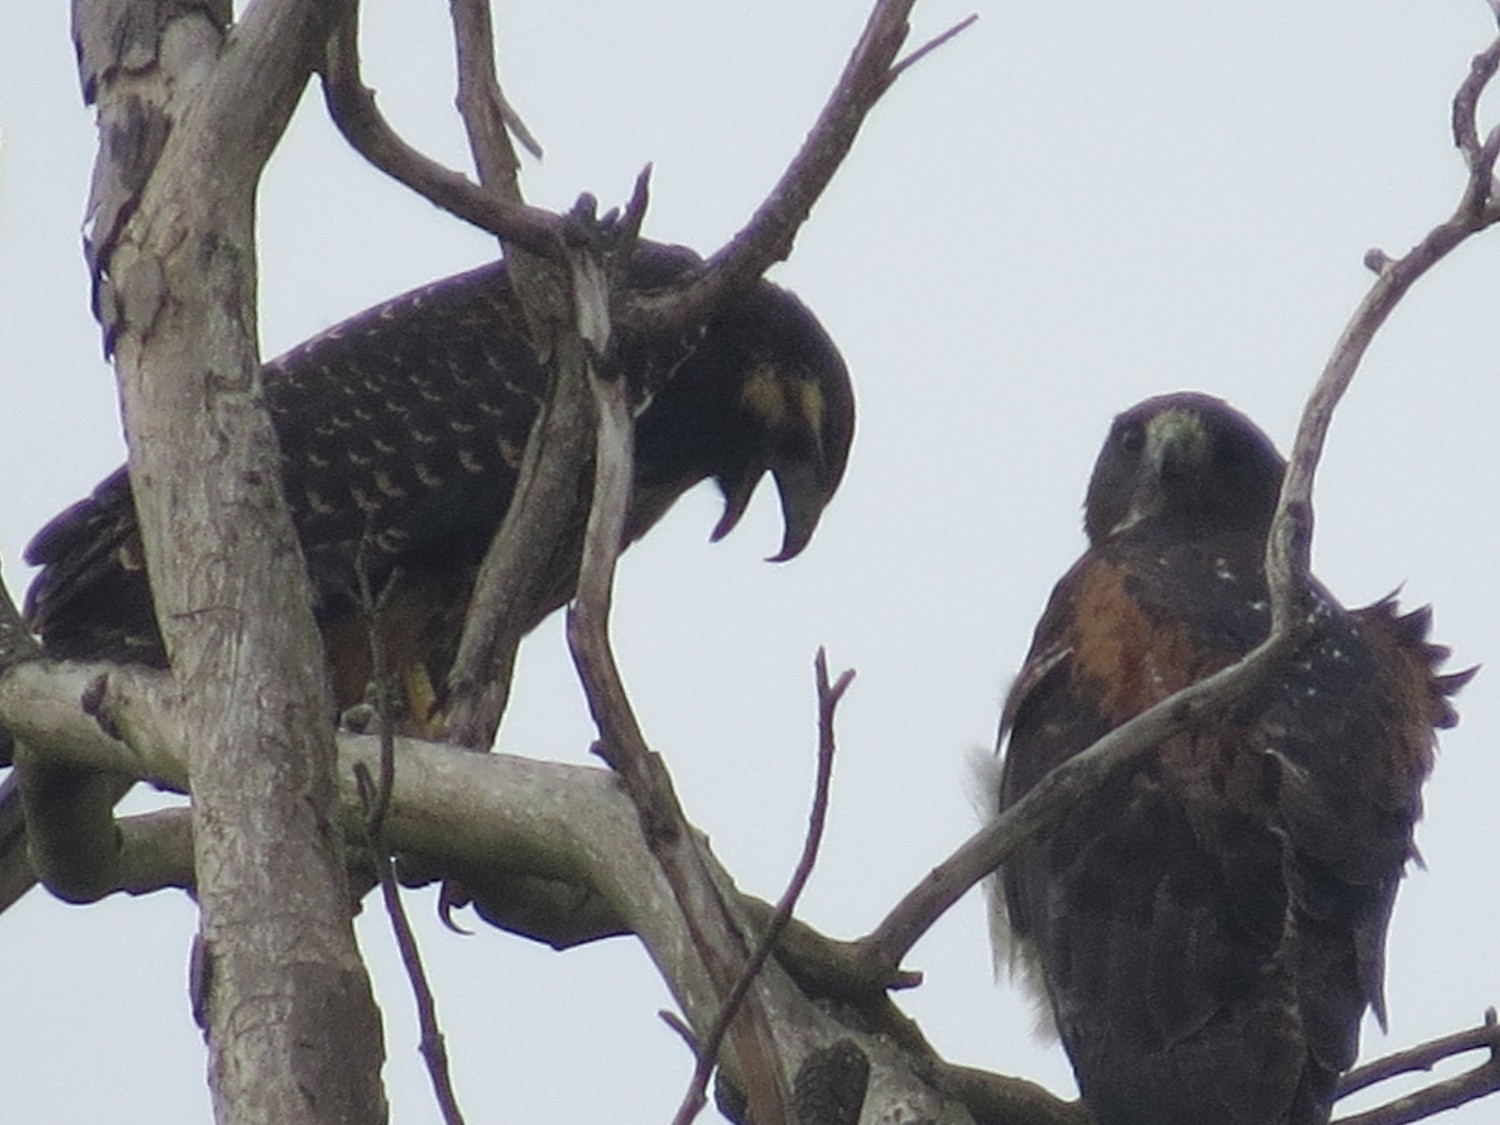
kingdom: Animalia
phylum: Chordata
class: Aves
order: Accipitriformes
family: Accipitridae
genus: Buteo
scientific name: Buteo albicaudatus
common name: White-tailed hawk
